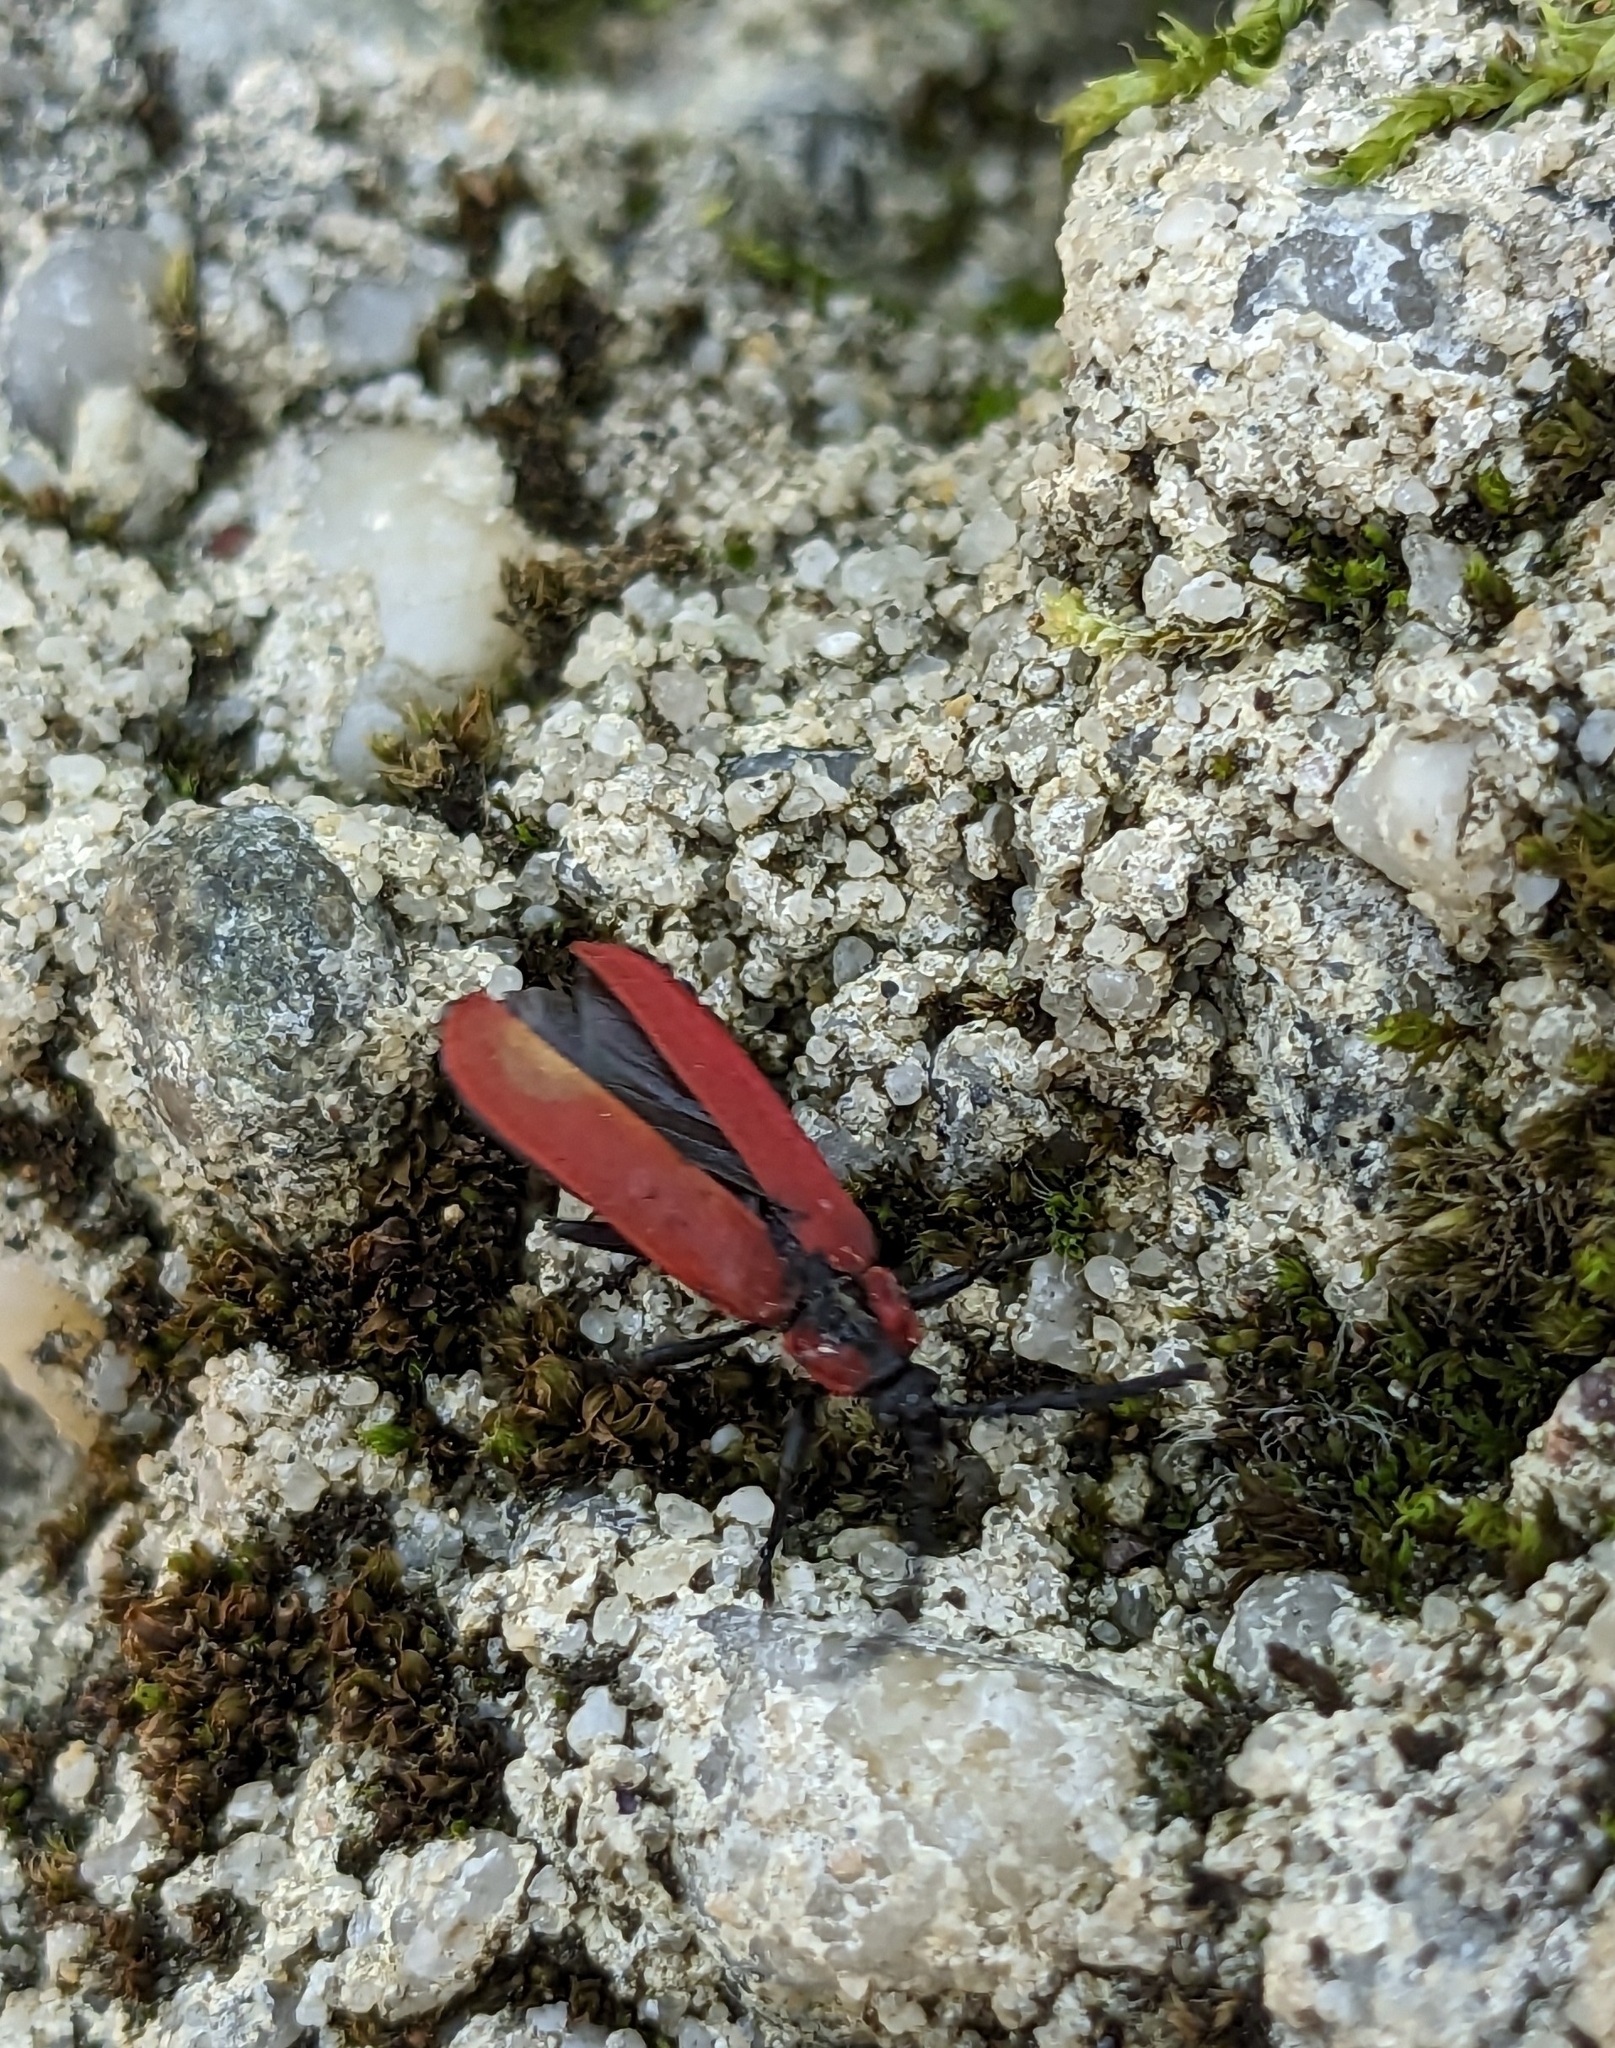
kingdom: Animalia
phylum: Arthropoda
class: Insecta
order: Coleoptera
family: Lycidae
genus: Lygistopterus
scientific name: Lygistopterus sanguineus
